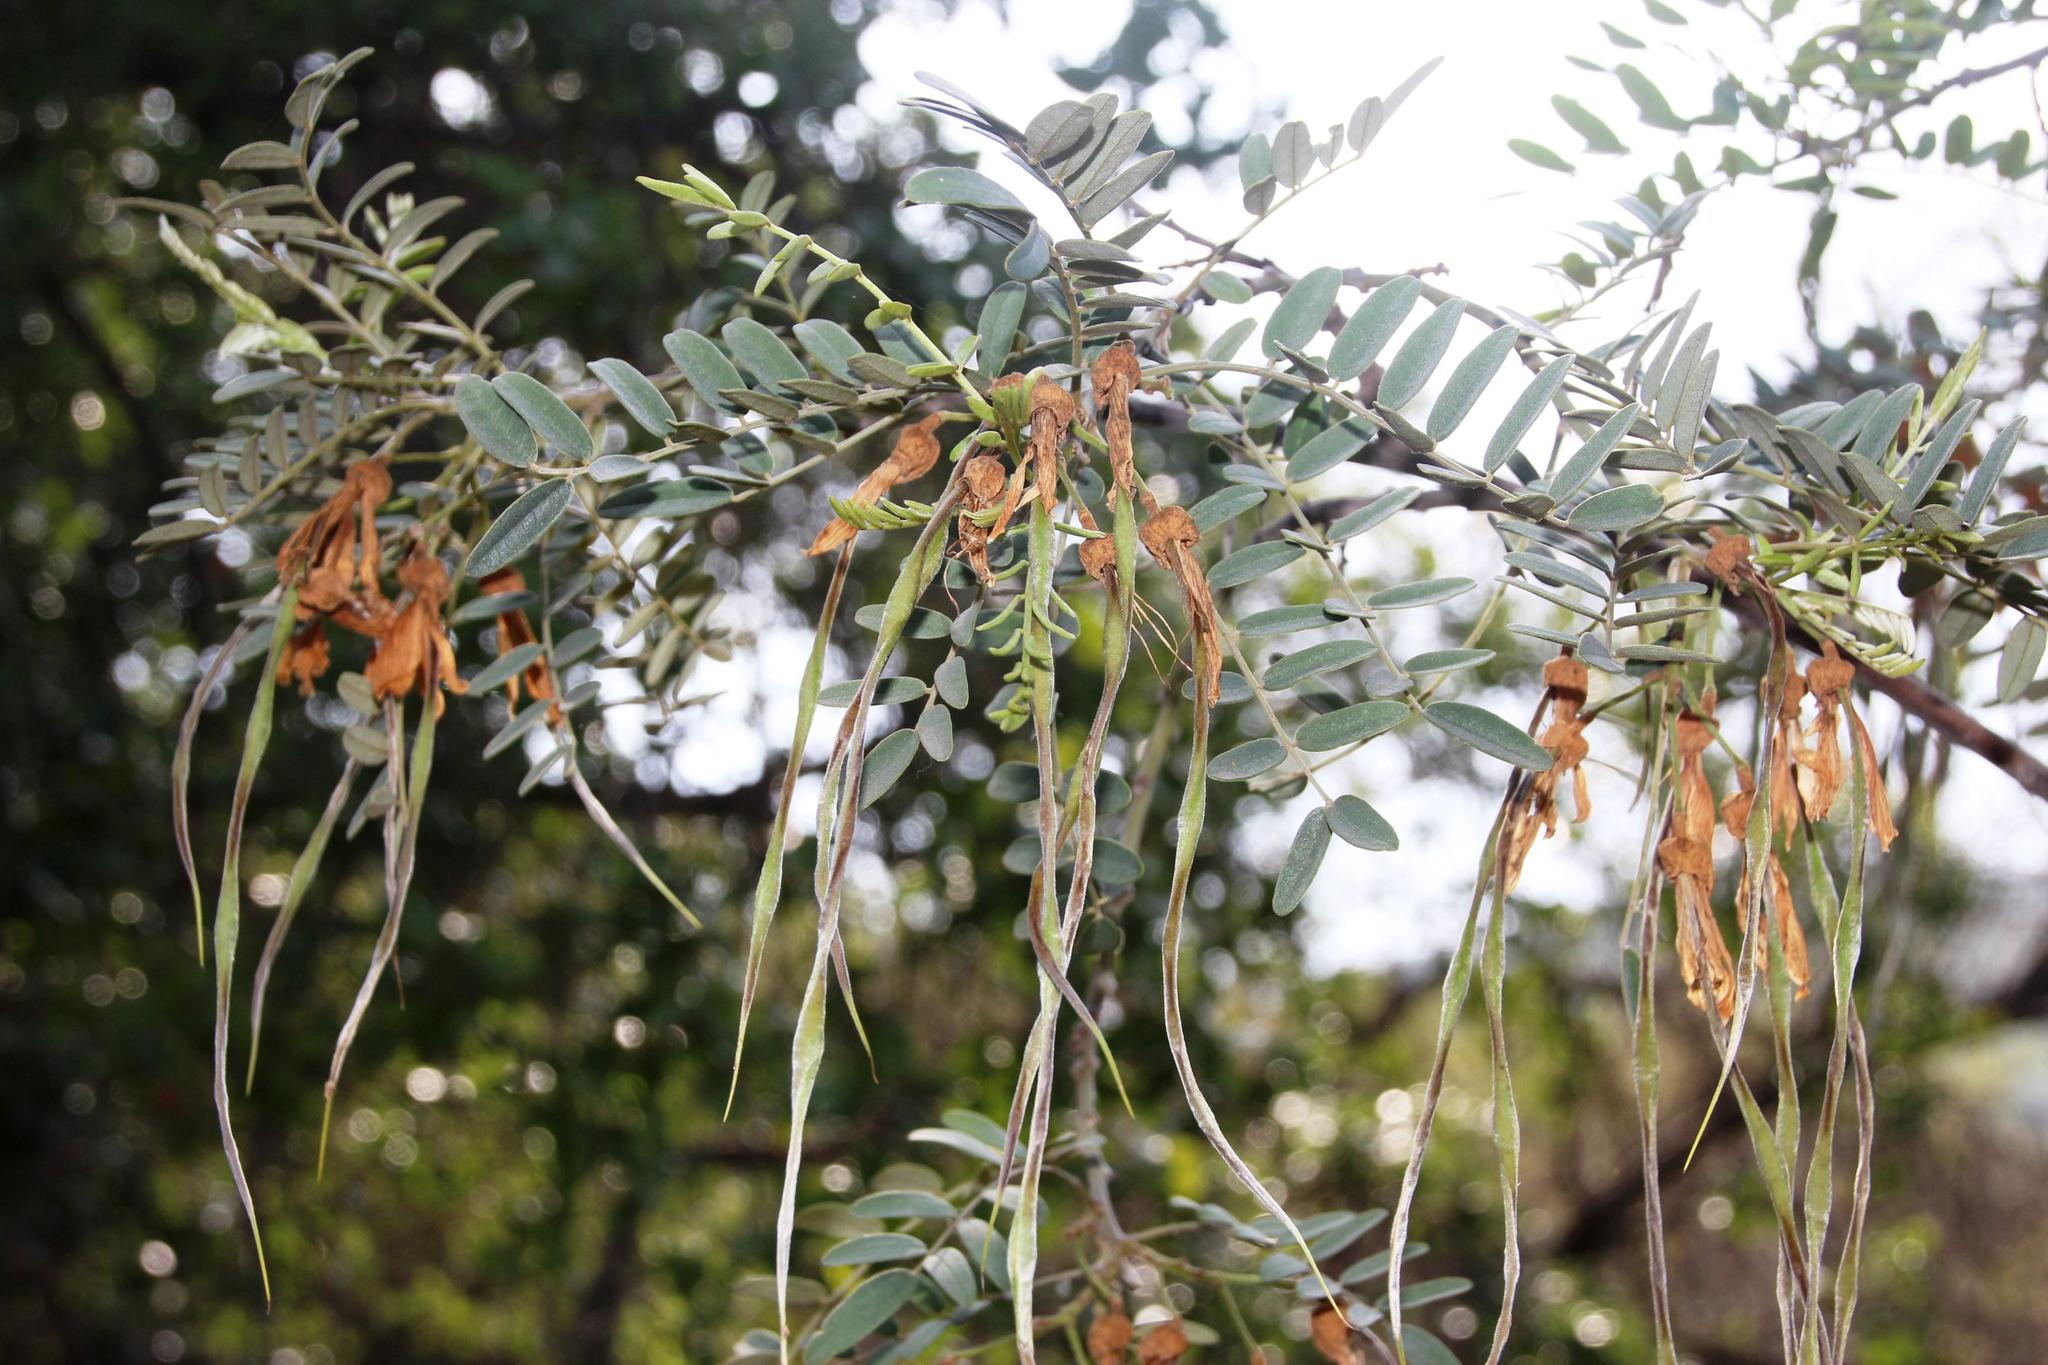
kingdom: Plantae
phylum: Tracheophyta
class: Magnoliopsida
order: Fabales
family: Fabaceae
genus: Sophora
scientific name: Sophora macrocarpa
